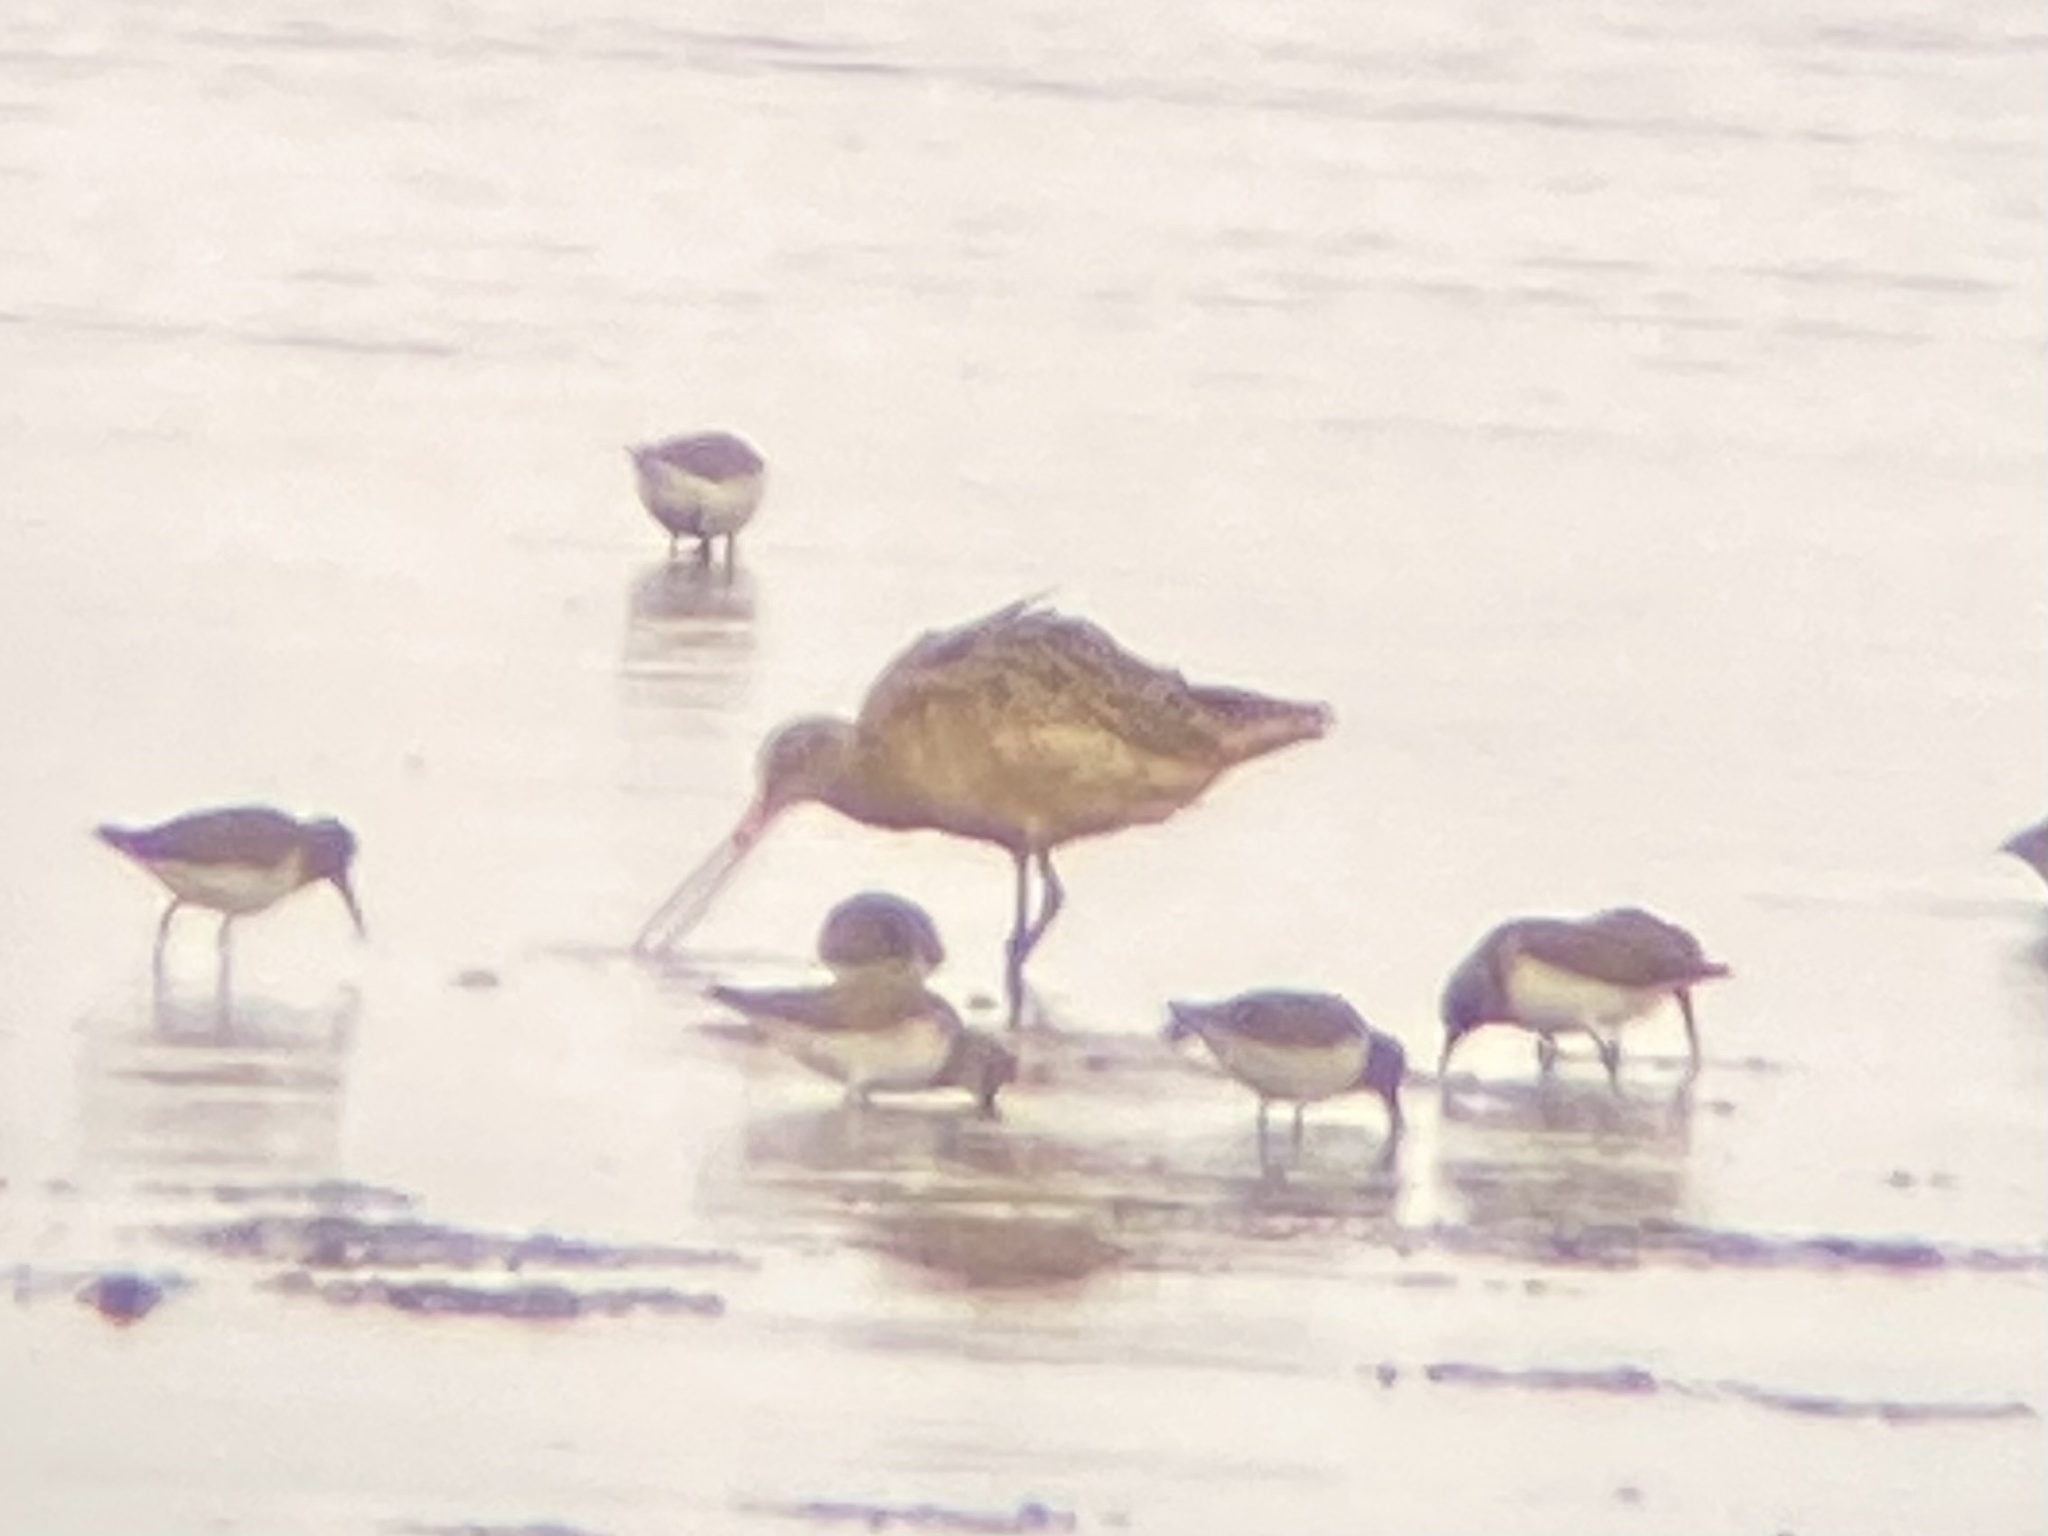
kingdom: Animalia
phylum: Chordata
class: Aves
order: Charadriiformes
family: Scolopacidae
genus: Limosa
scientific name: Limosa fedoa
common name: Marbled godwit
